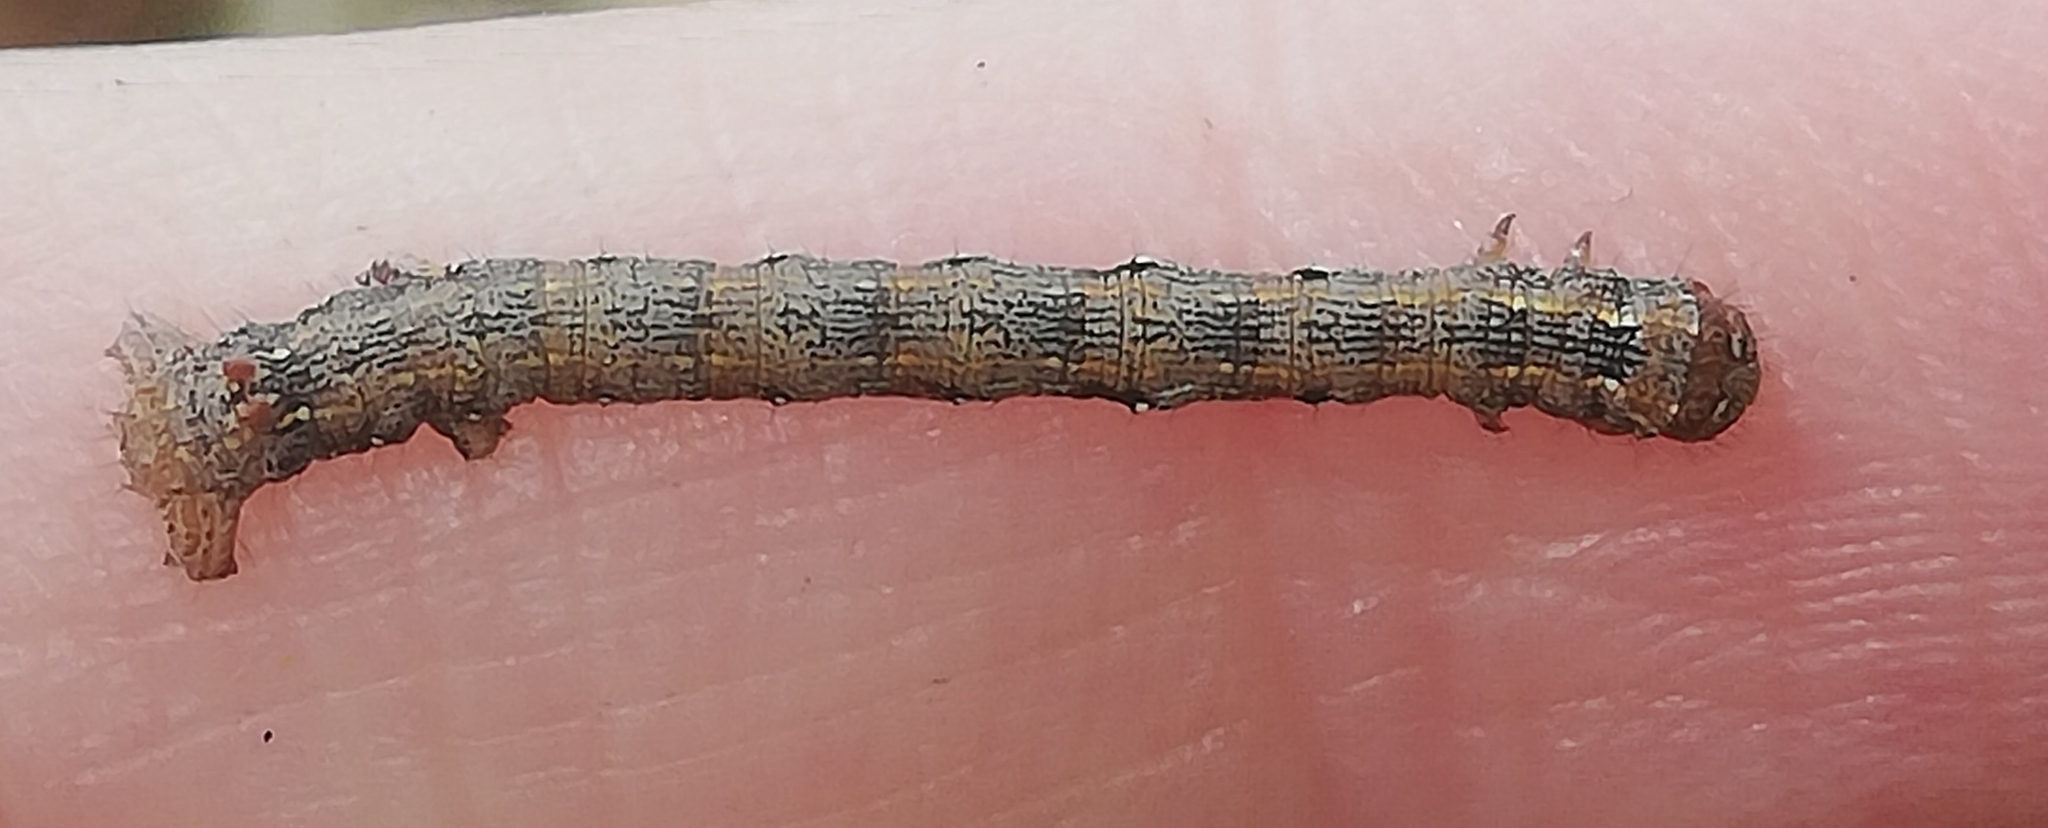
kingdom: Animalia
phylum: Arthropoda
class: Insecta
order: Lepidoptera
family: Geometridae
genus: Colotois
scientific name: Colotois pennaria
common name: Feathered thorn
